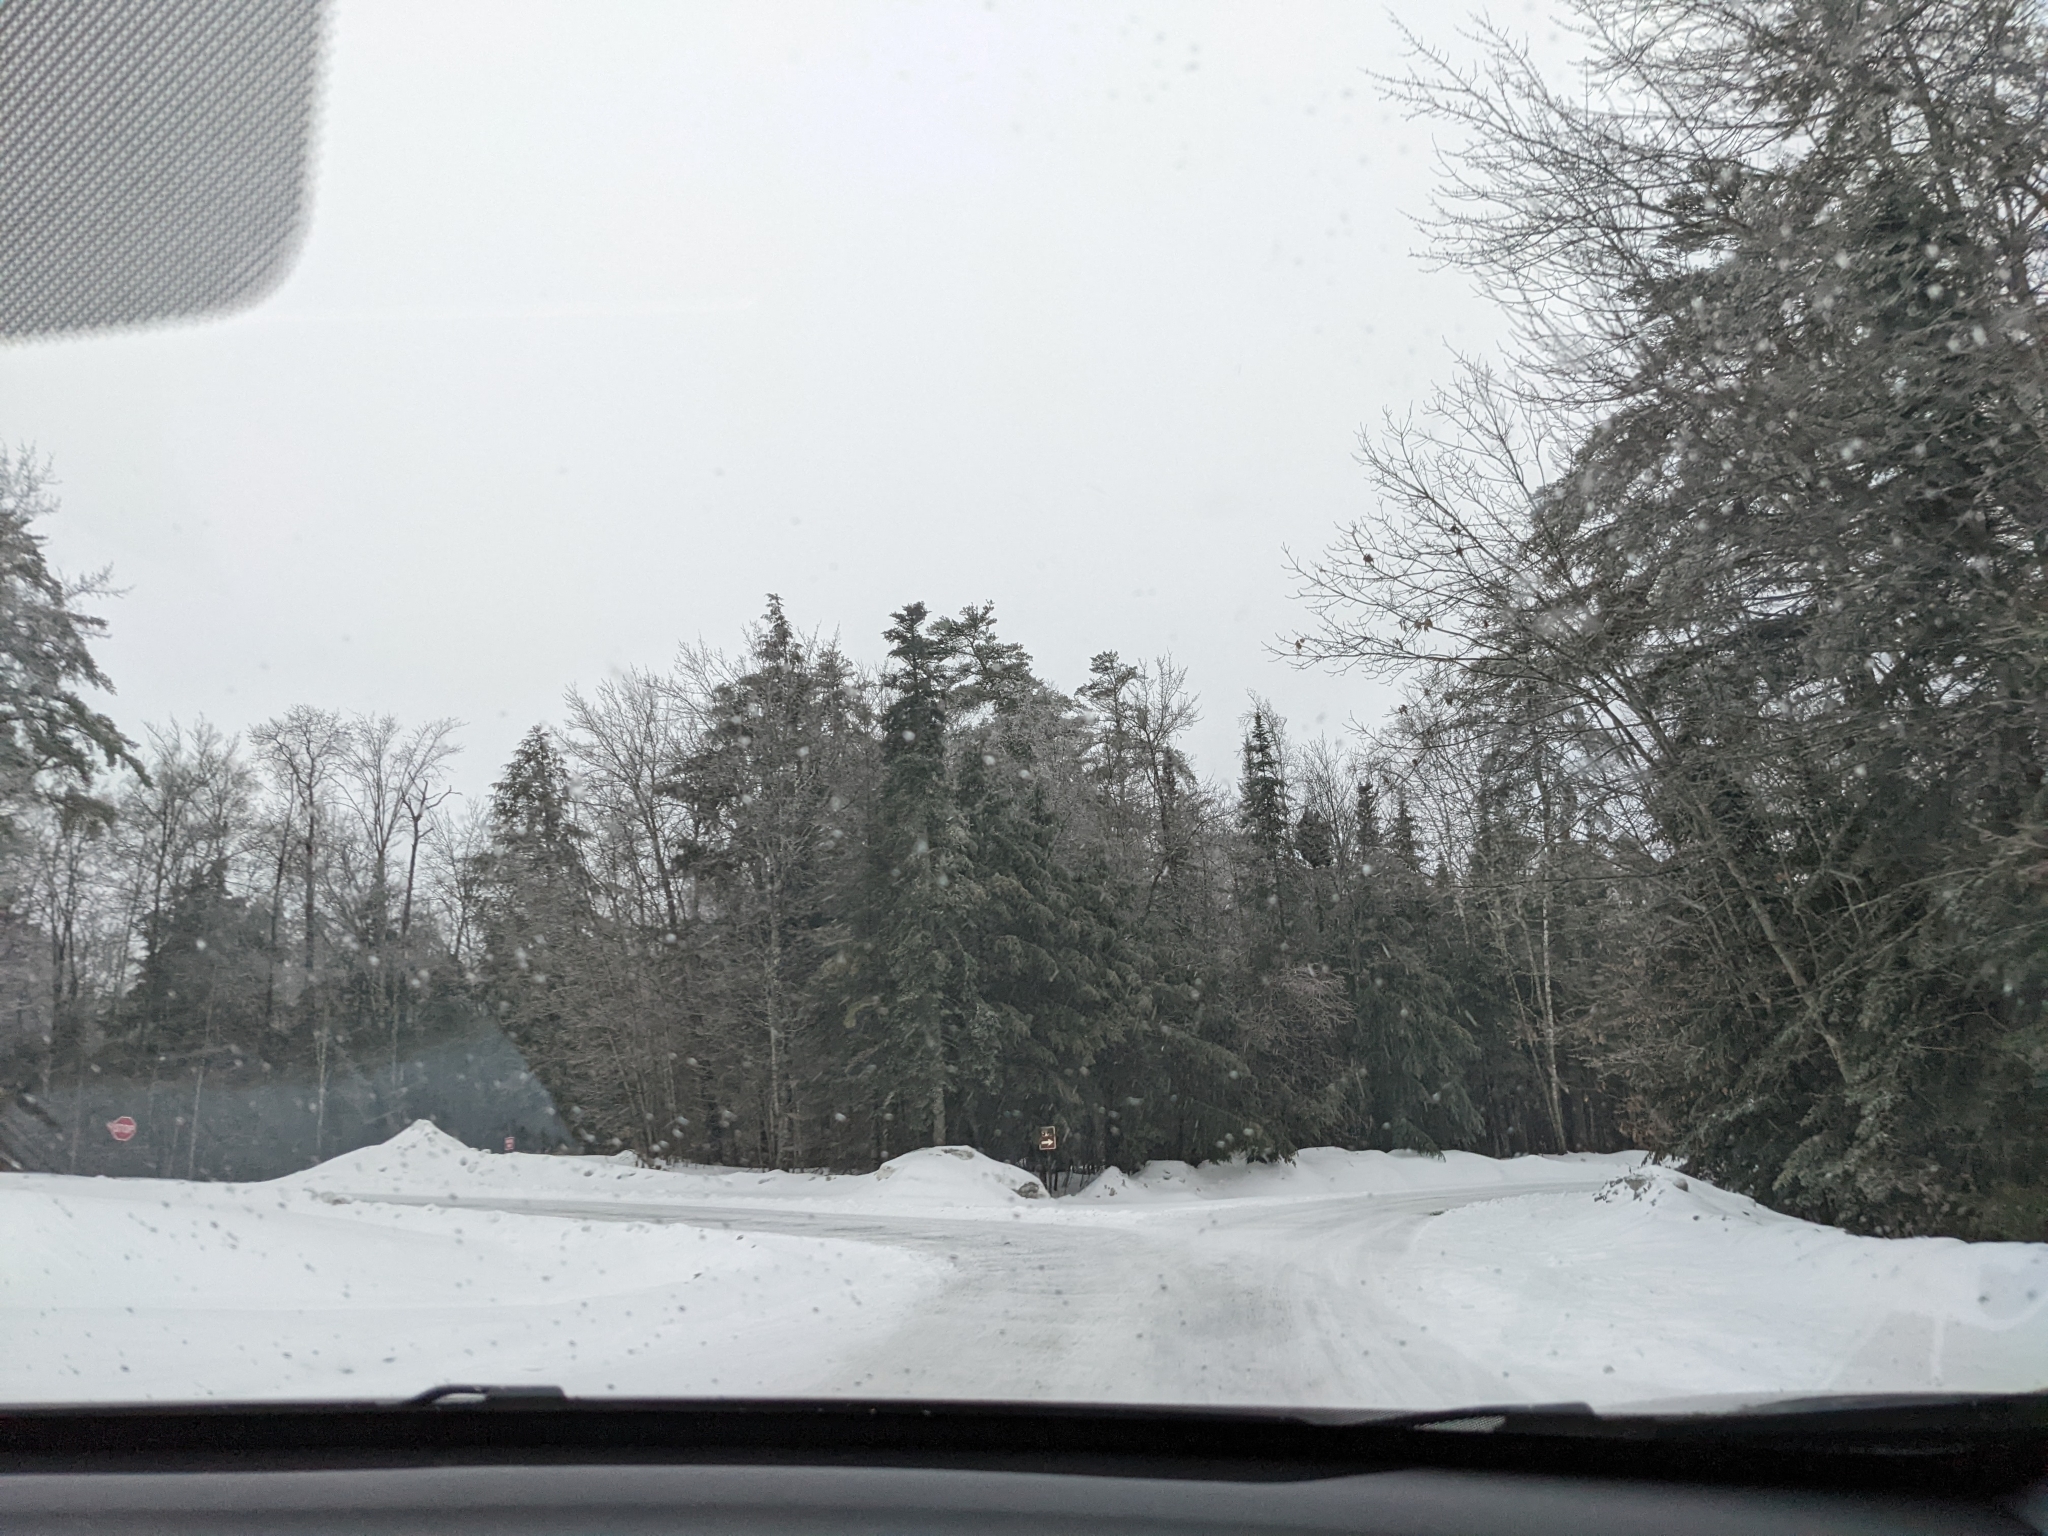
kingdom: Plantae
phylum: Tracheophyta
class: Pinopsida
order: Pinales
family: Pinaceae
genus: Pinus
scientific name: Pinus strobus
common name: Weymouth pine
